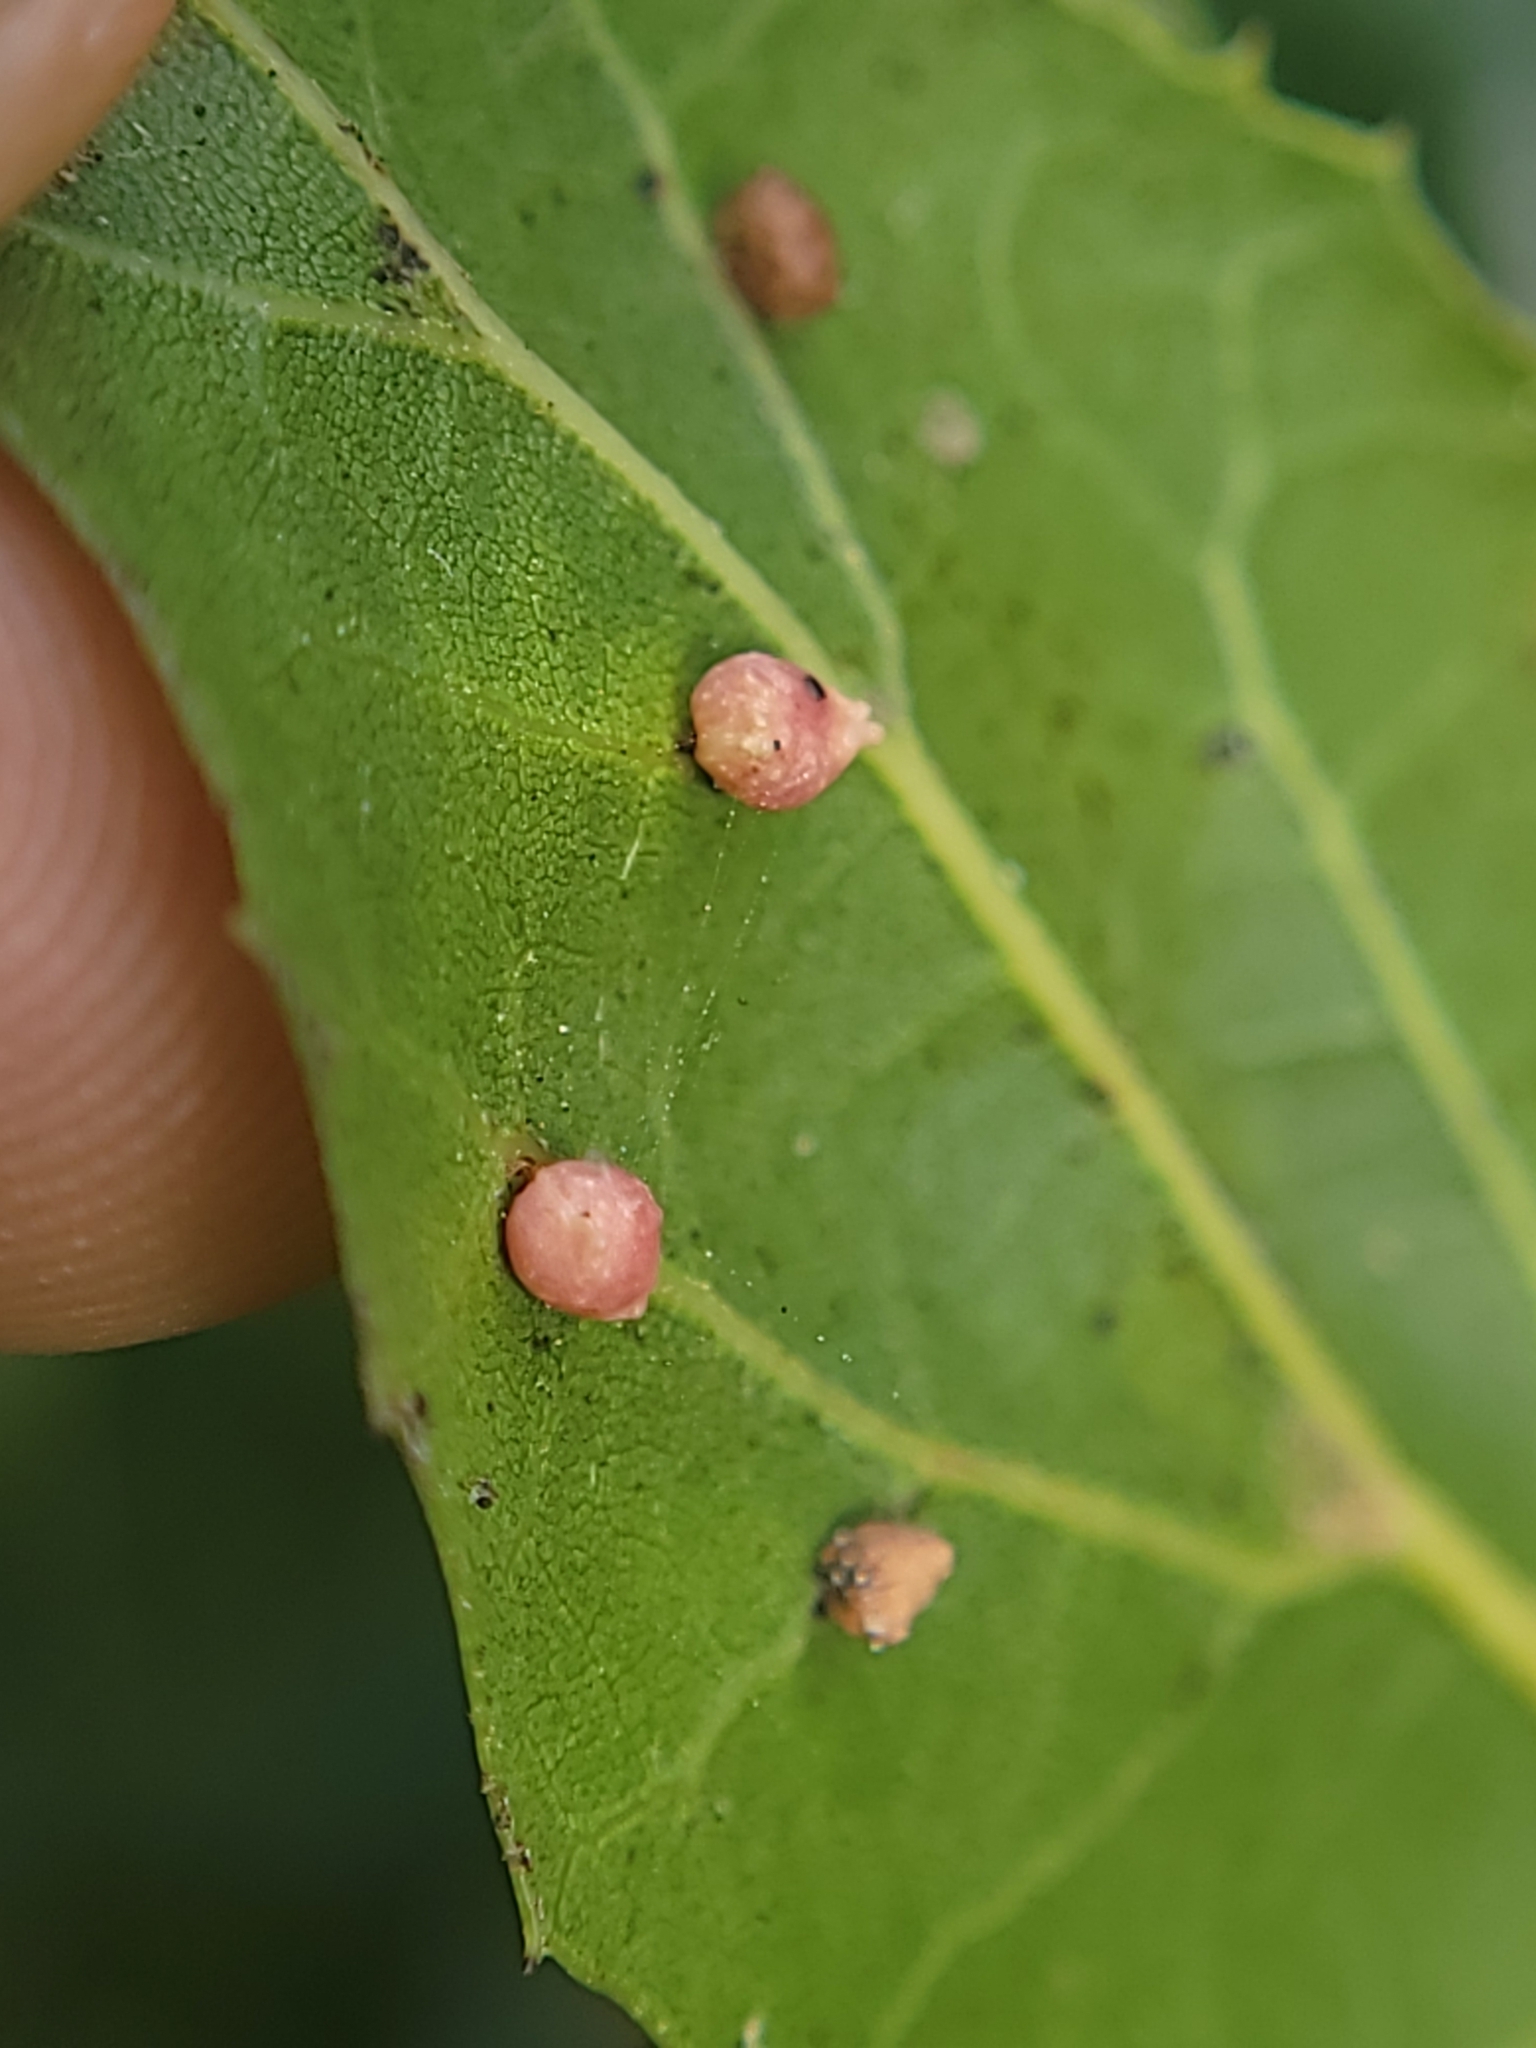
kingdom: Animalia
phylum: Arthropoda
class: Insecta
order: Hymenoptera
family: Cynipidae
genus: Dryocosmus
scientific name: Dryocosmus
